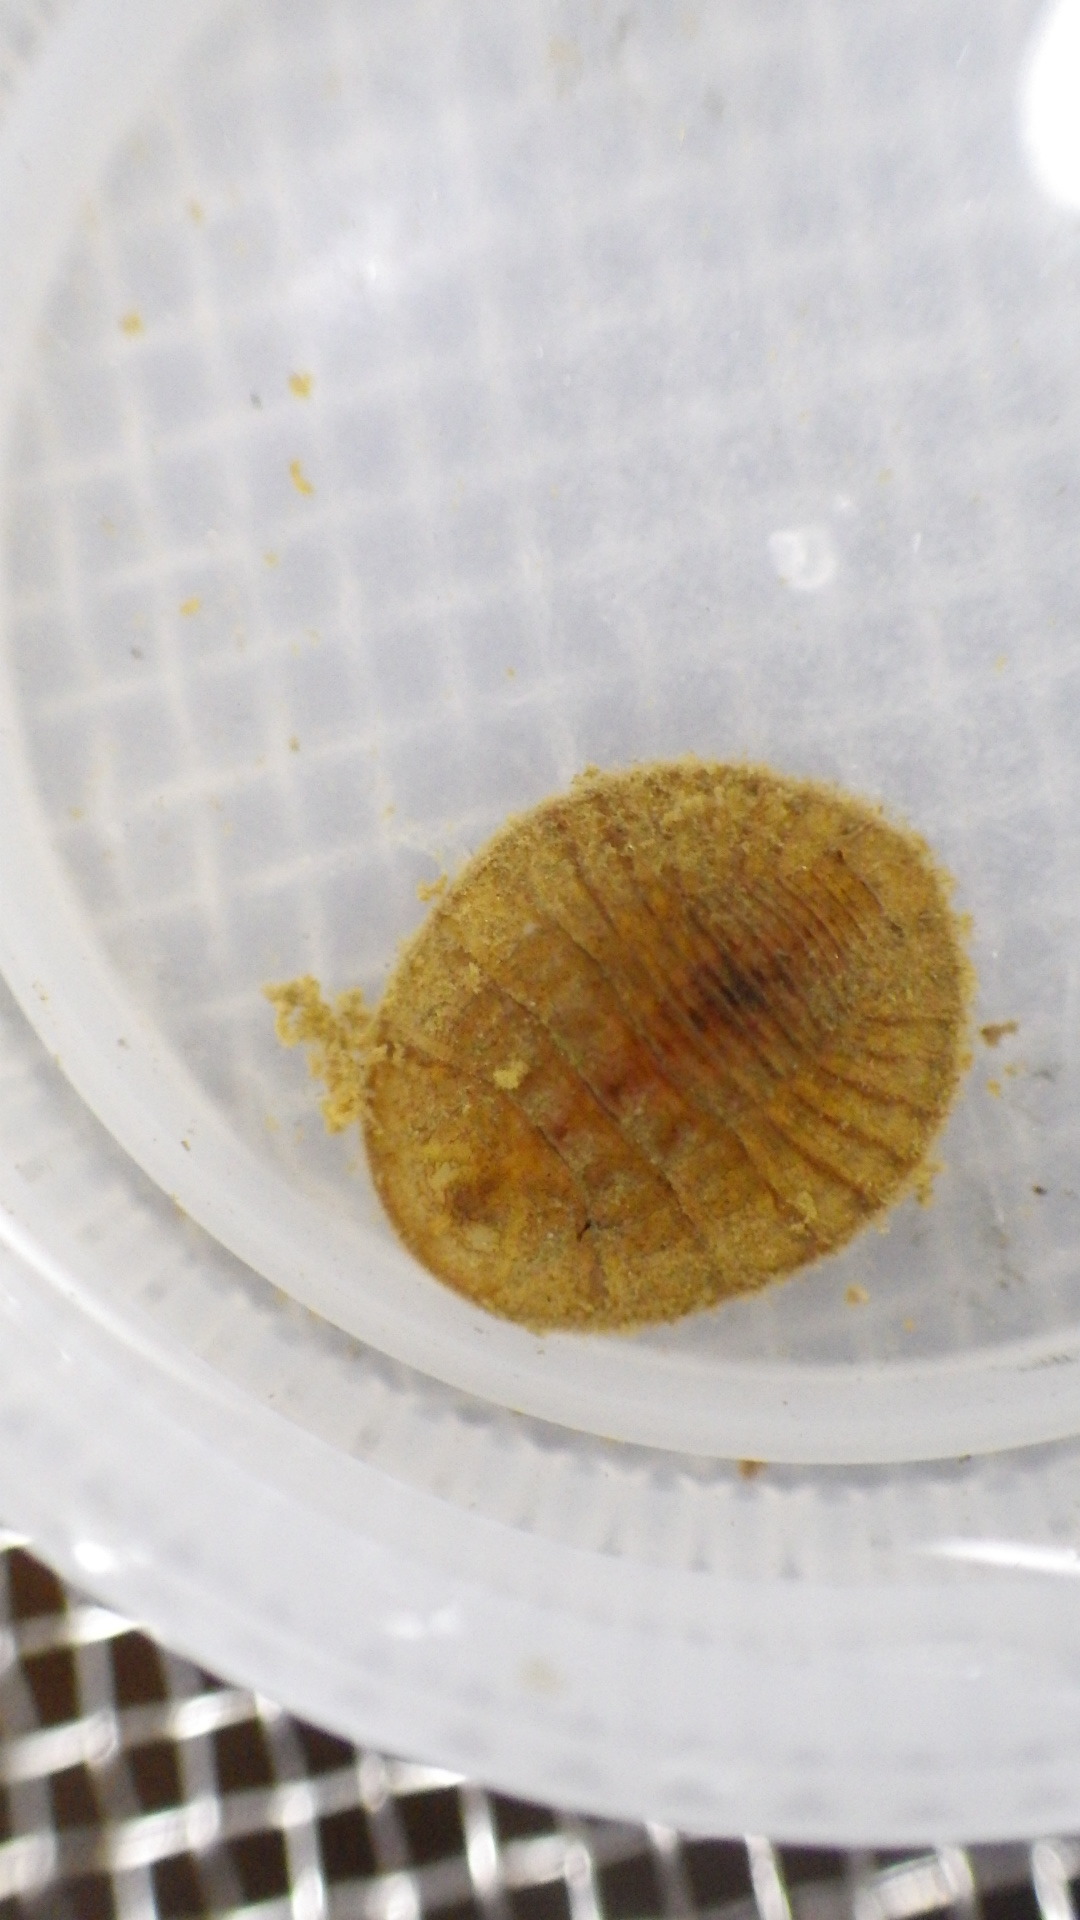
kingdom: Animalia
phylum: Arthropoda
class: Insecta
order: Coleoptera
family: Psephenidae
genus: Psephenus
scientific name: Psephenus herricki
